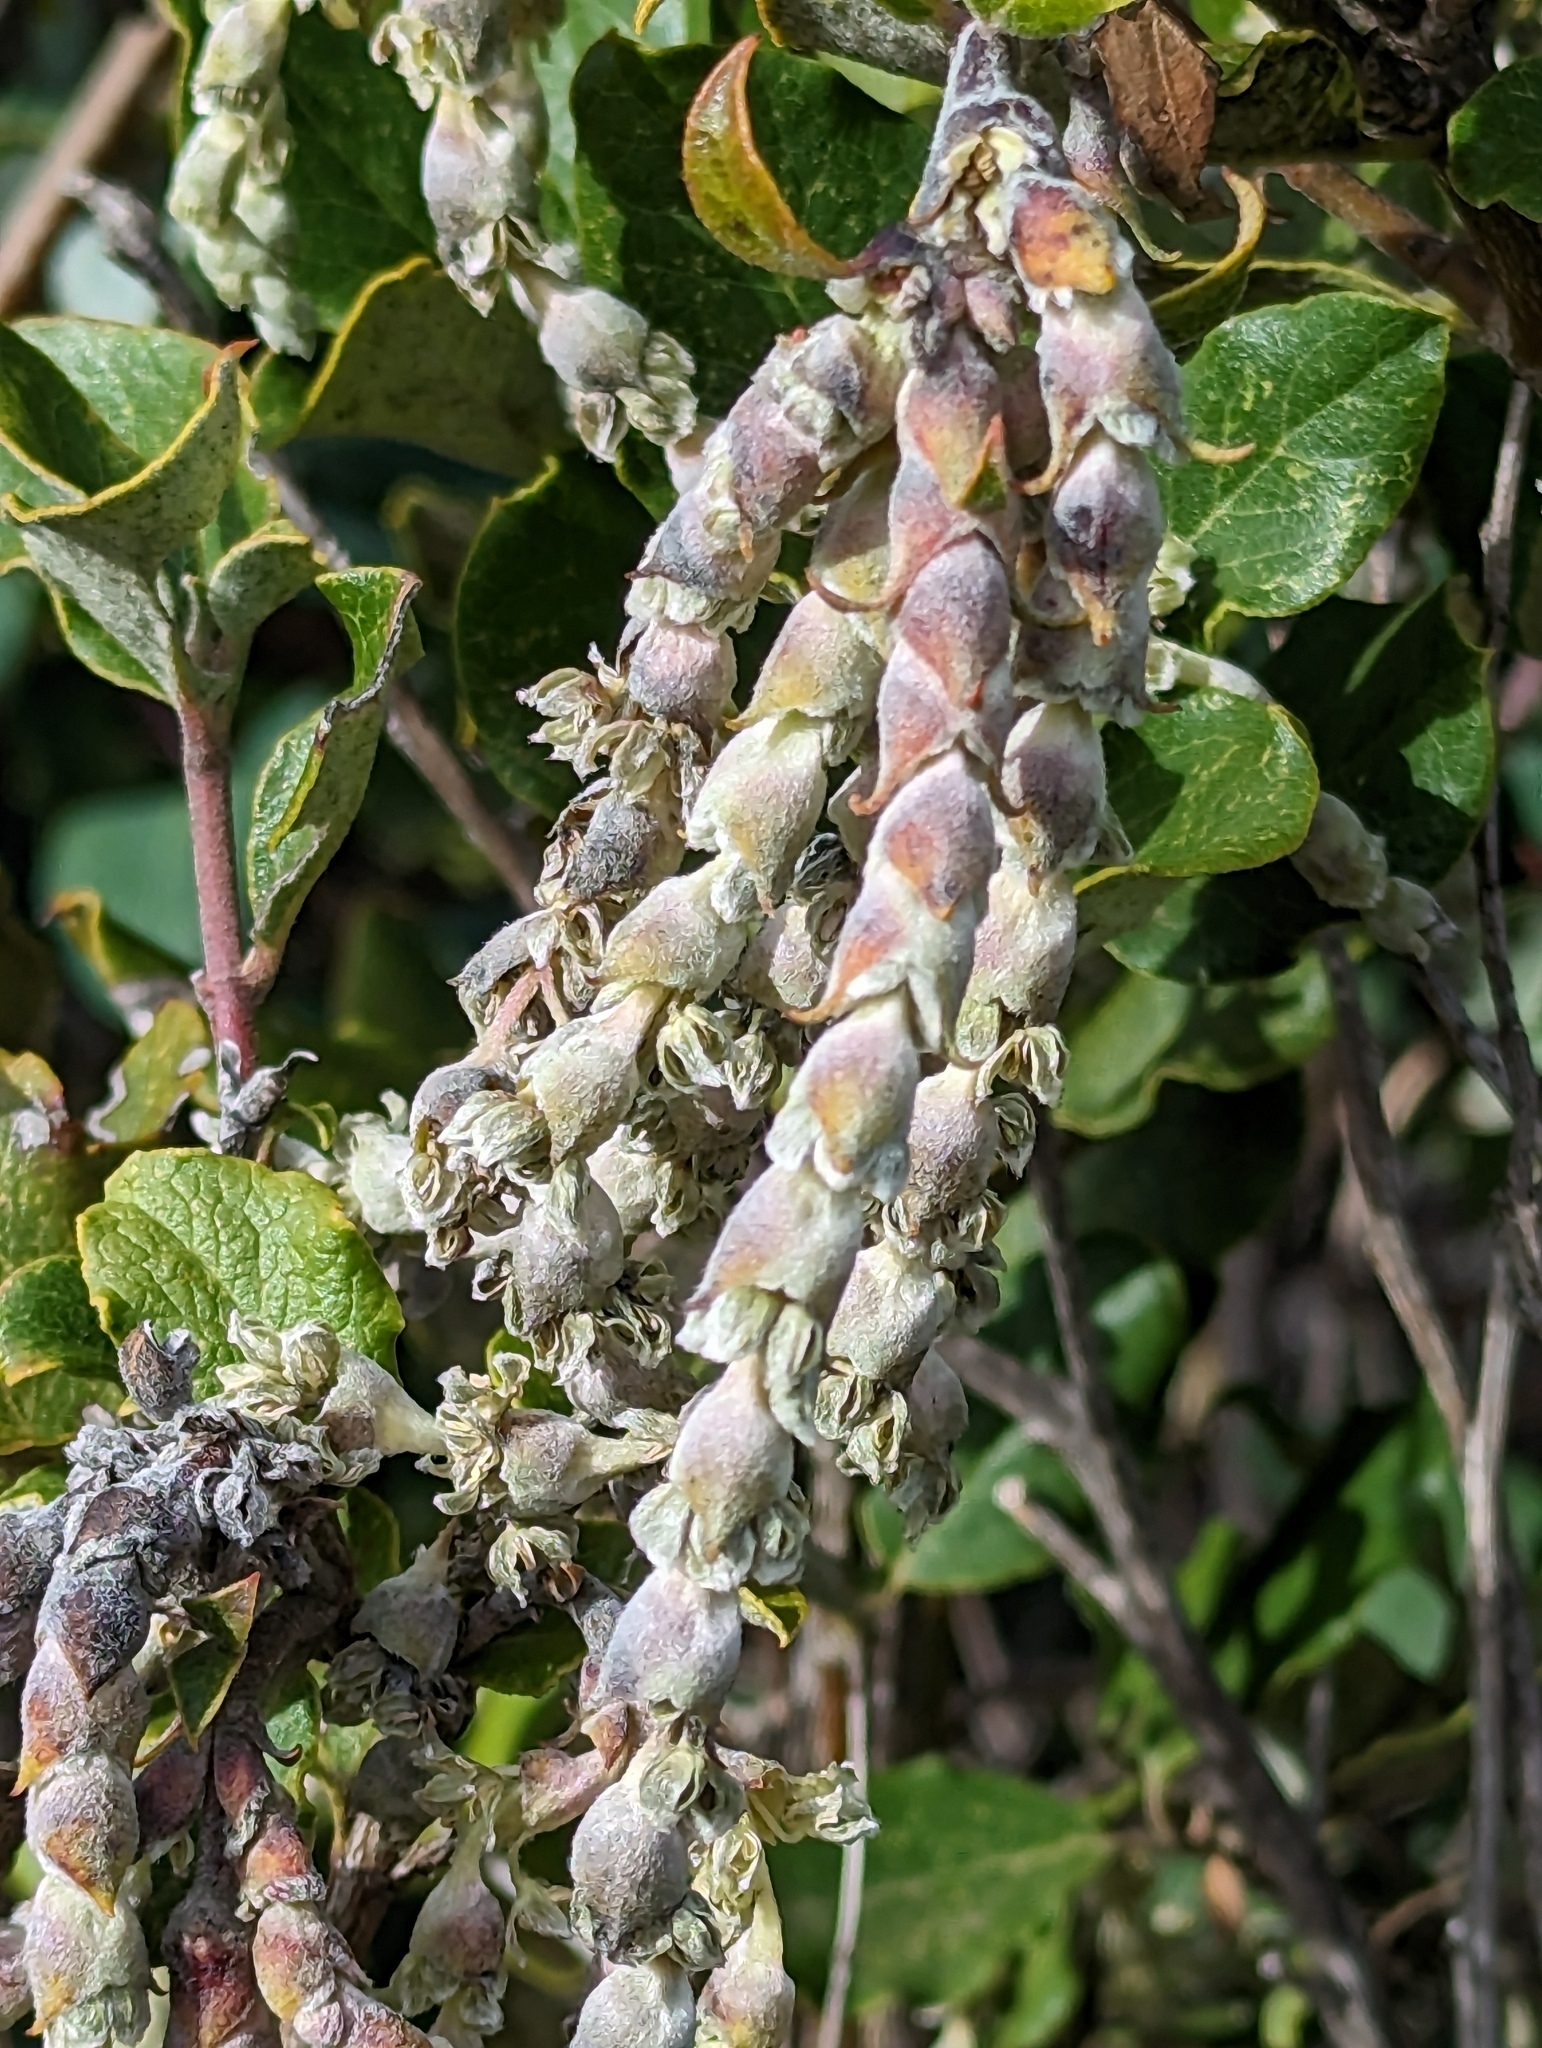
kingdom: Plantae
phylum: Tracheophyta
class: Magnoliopsida
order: Garryales
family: Garryaceae
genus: Garrya
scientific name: Garrya elliptica
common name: Silk-tassel
